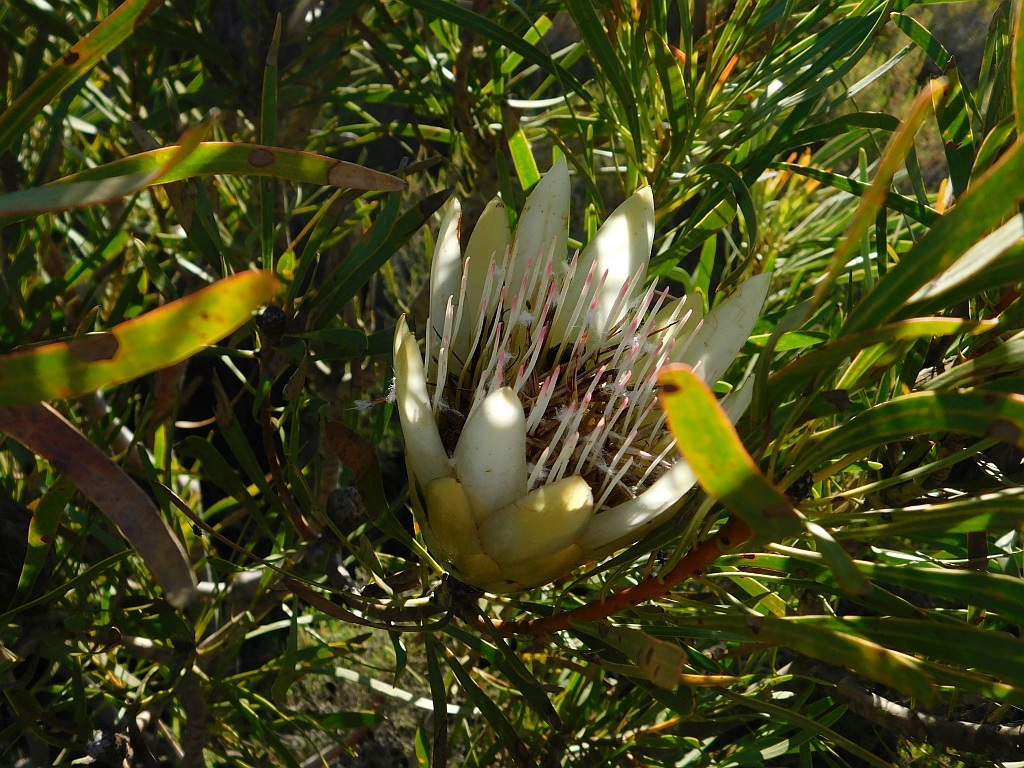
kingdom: Plantae
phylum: Tracheophyta
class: Magnoliopsida
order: Proteales
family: Proteaceae
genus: Protea
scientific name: Protea repens
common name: Sugarbush
